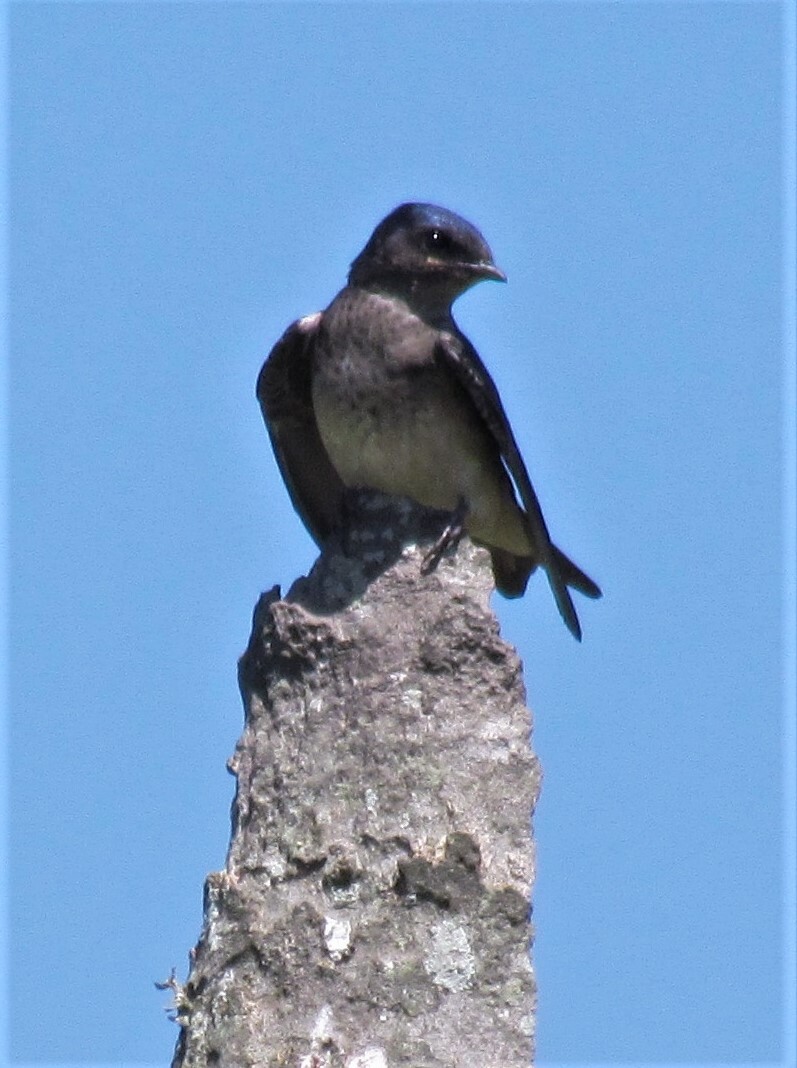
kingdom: Animalia
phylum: Chordata
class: Aves
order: Passeriformes
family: Hirundinidae
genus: Progne
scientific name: Progne chalybea
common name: Grey-breasted martin
